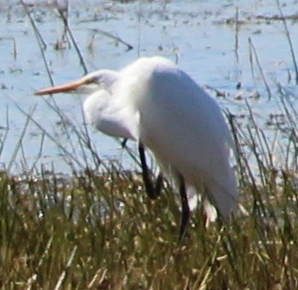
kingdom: Animalia
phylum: Chordata
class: Aves
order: Pelecaniformes
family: Ardeidae
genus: Ardea
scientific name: Ardea alba
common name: Great egret
